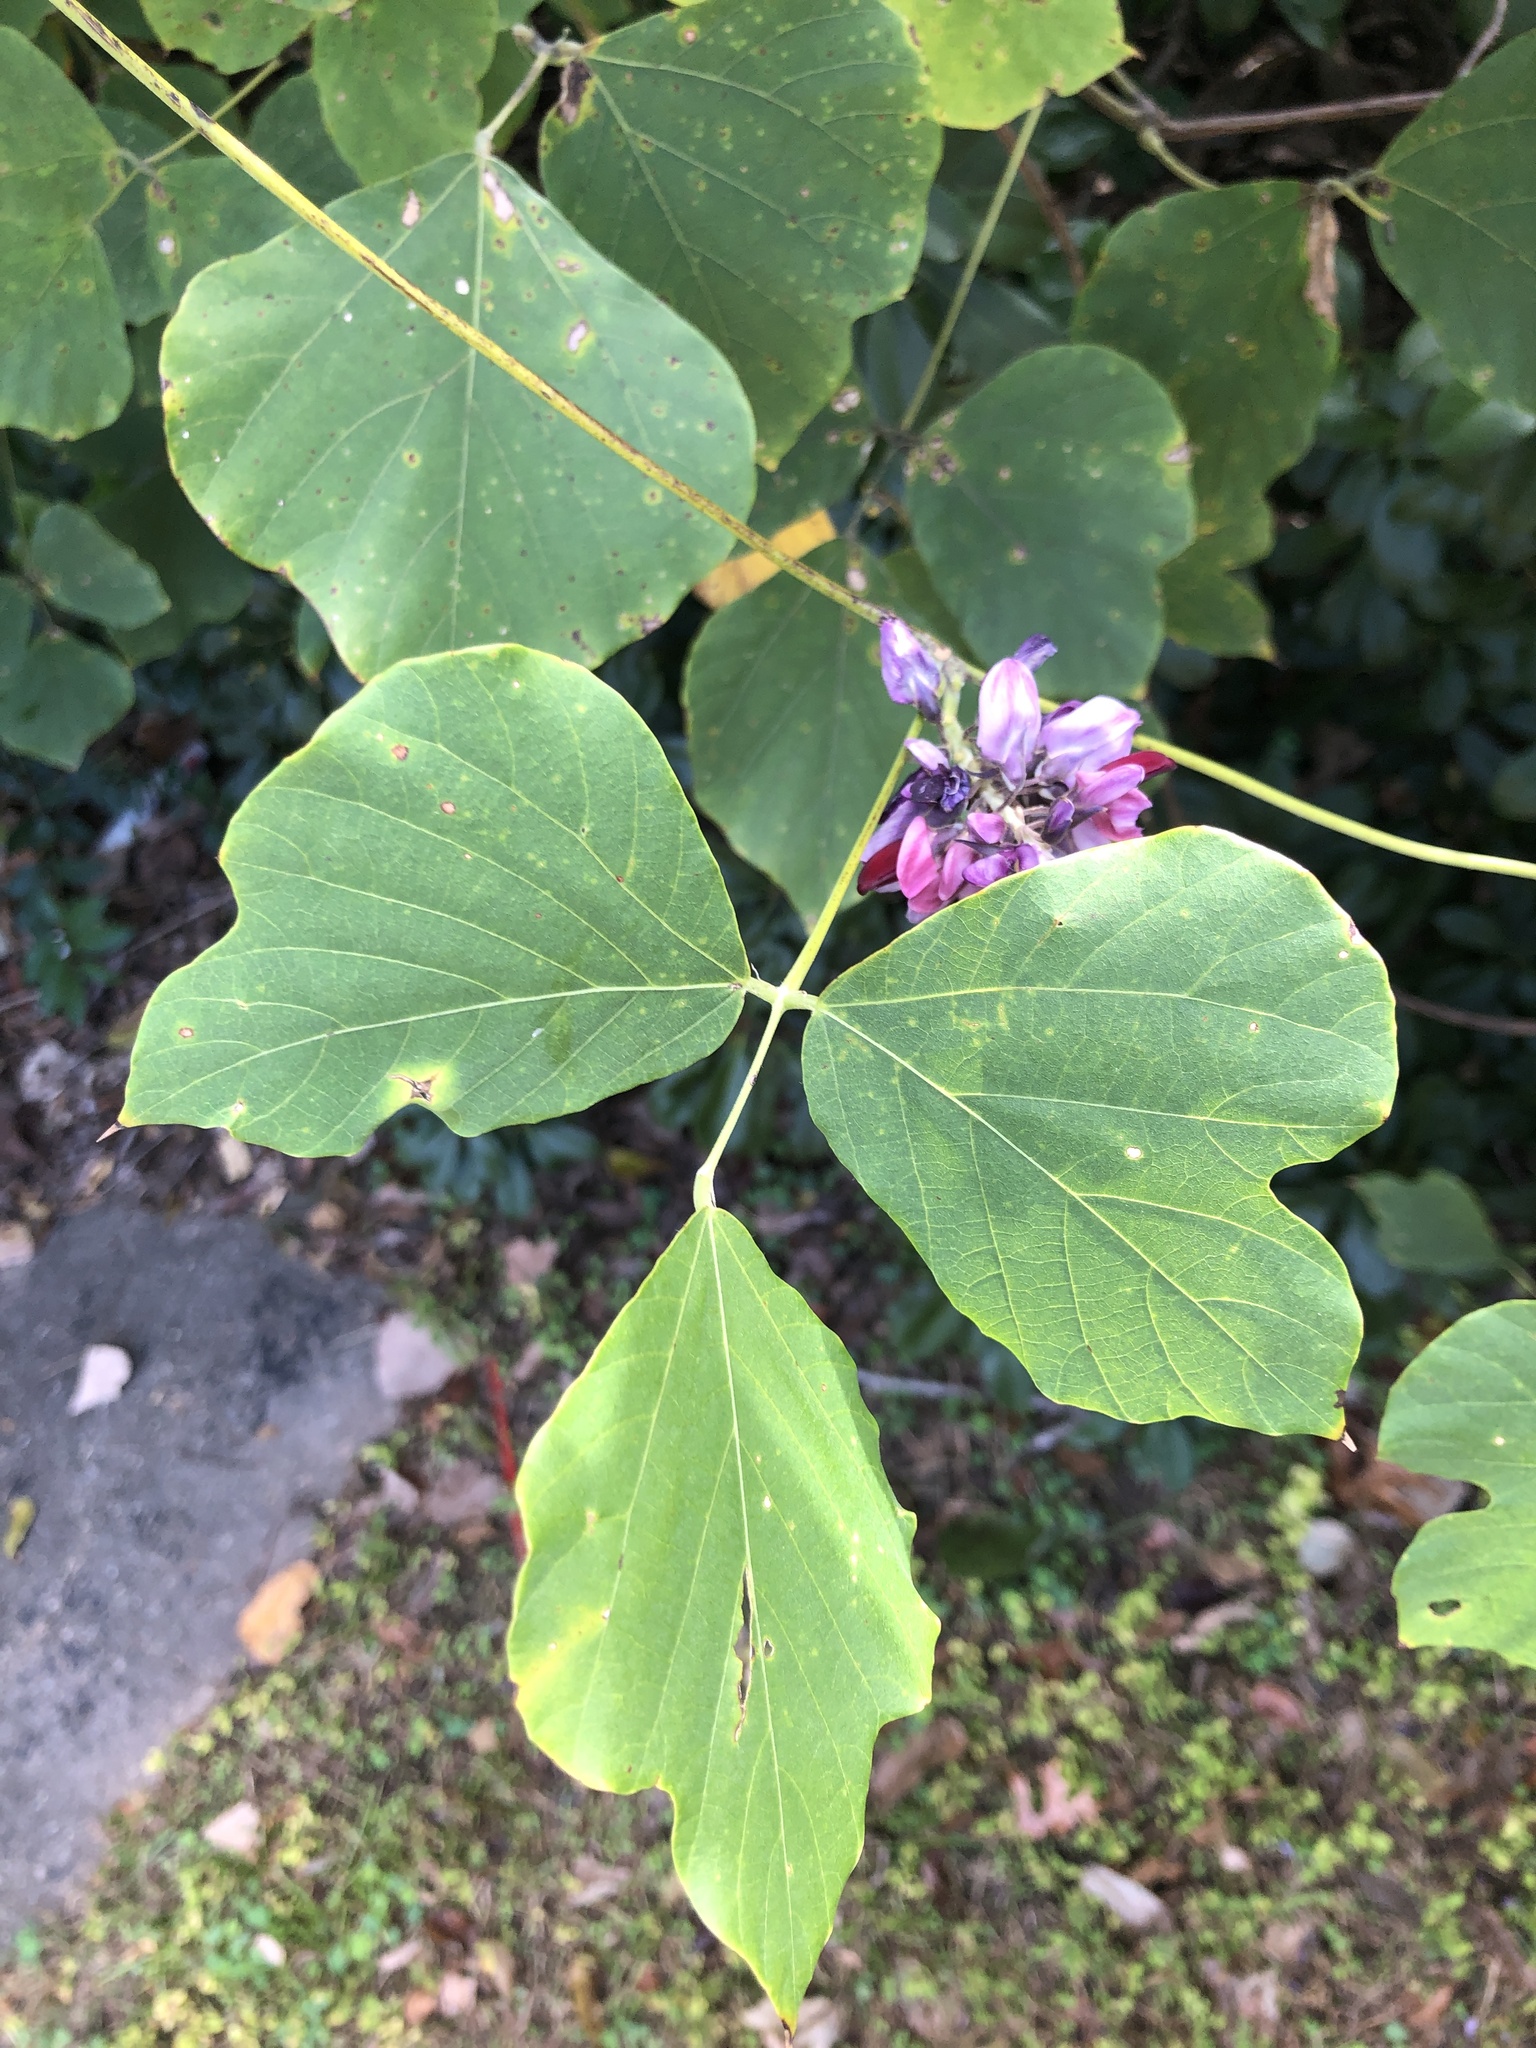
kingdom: Plantae
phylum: Tracheophyta
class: Magnoliopsida
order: Fabales
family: Fabaceae
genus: Pueraria
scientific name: Pueraria montana
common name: Kudzu
